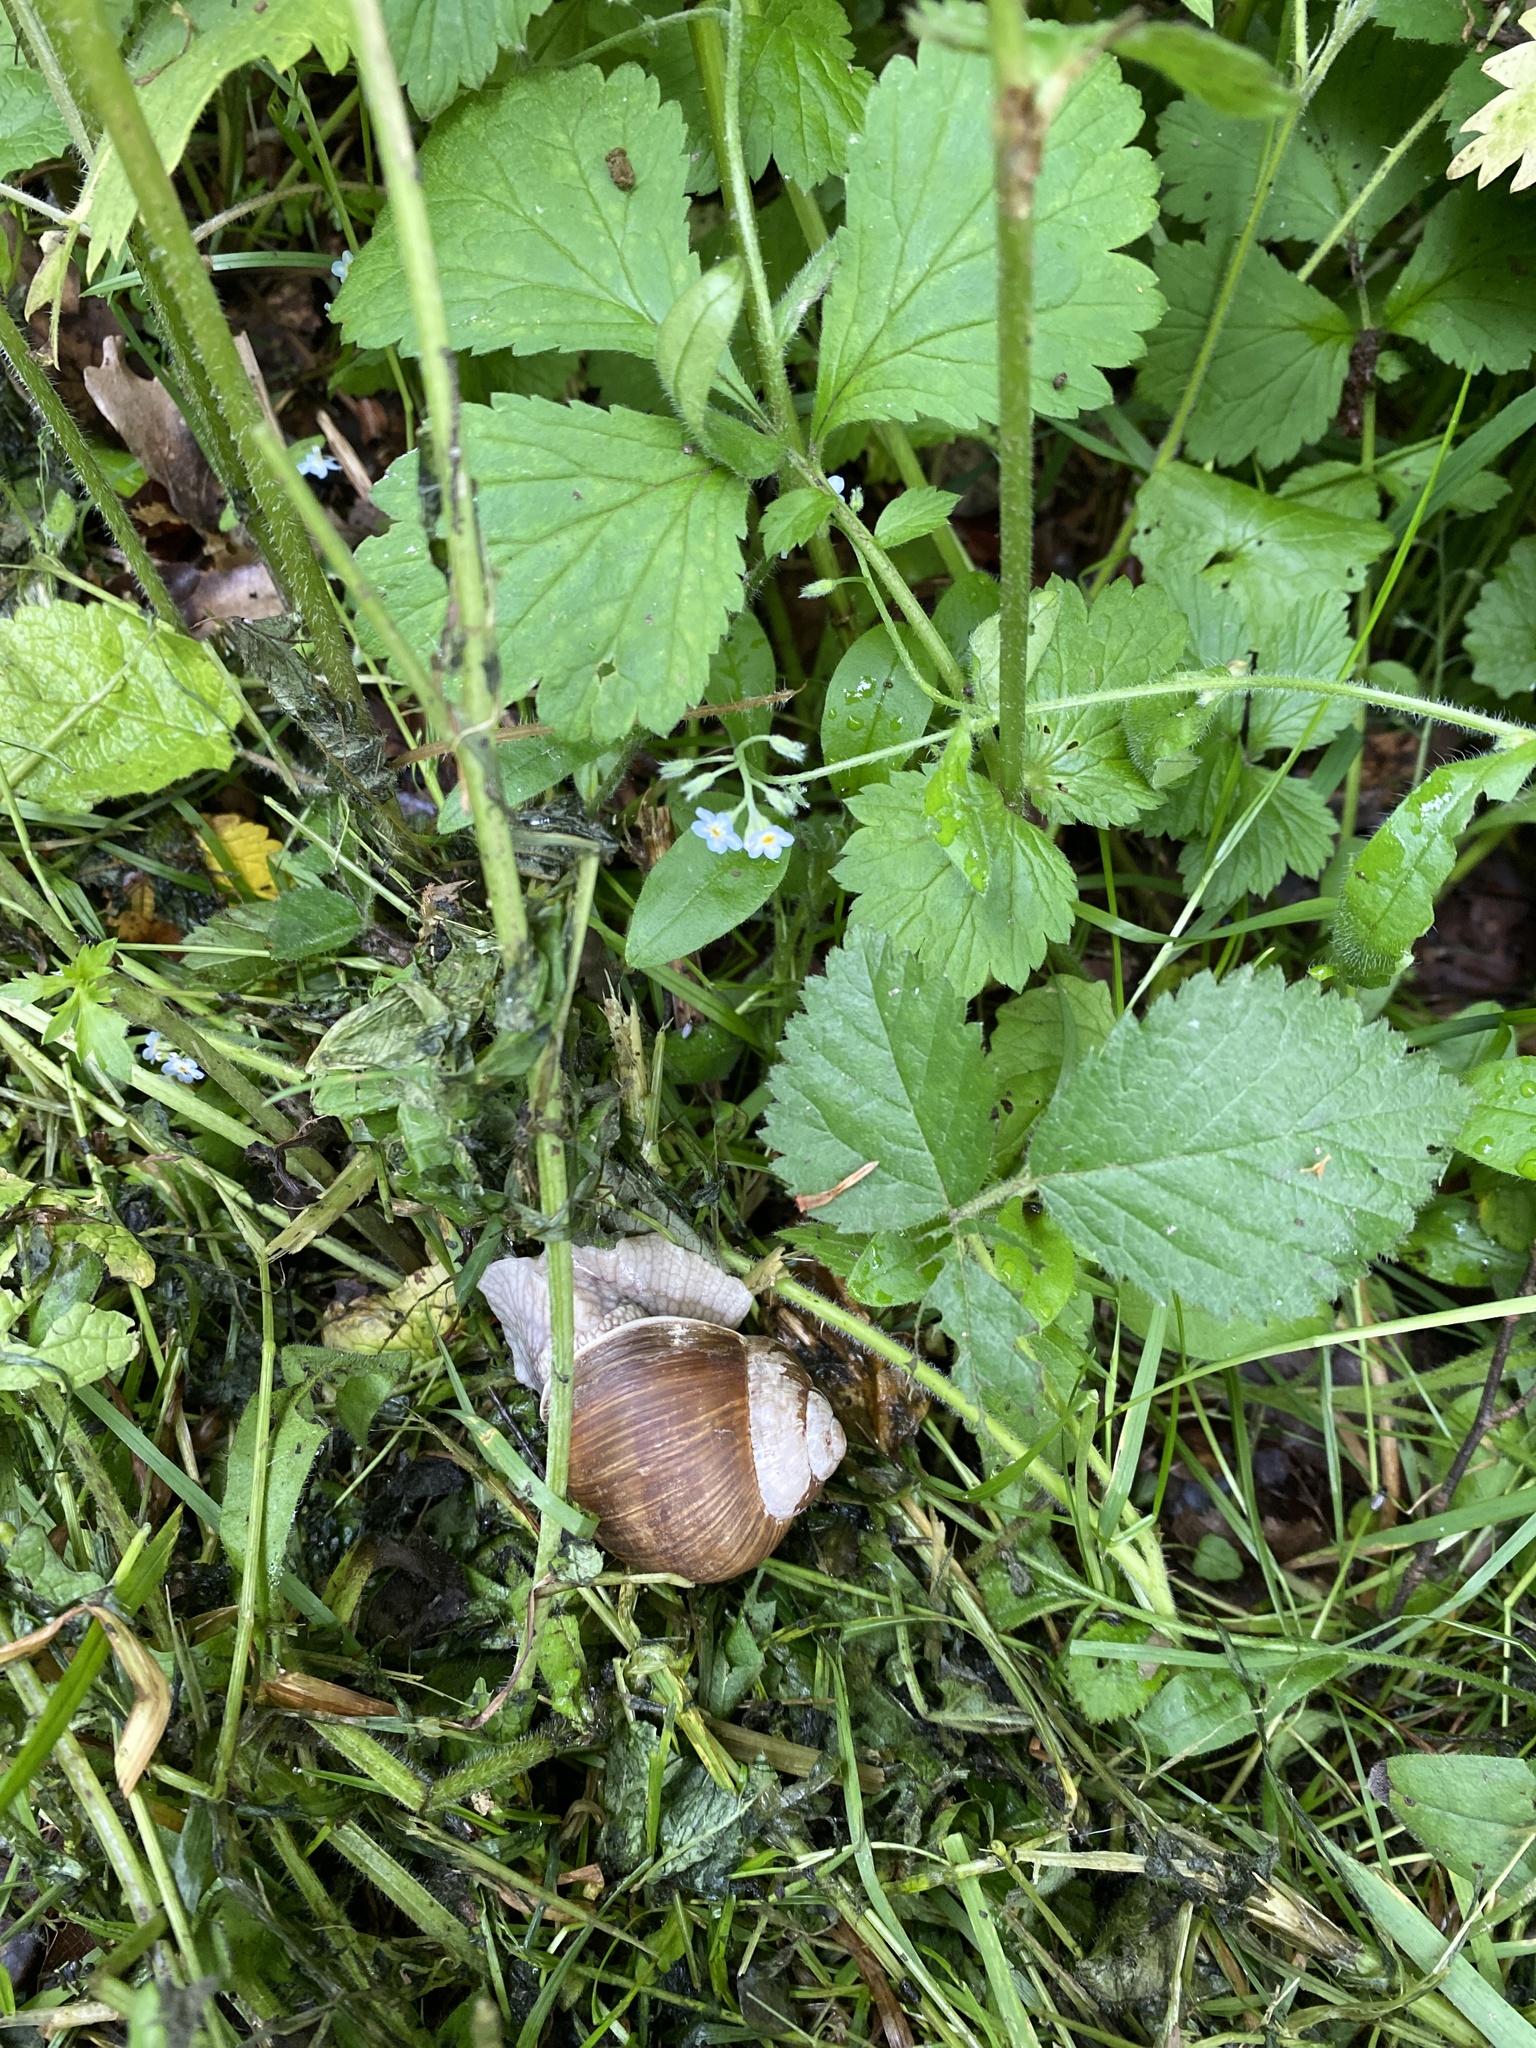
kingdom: Animalia
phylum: Mollusca
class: Gastropoda
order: Stylommatophora
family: Helicidae
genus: Helix
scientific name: Helix pomatia
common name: Roman snail
